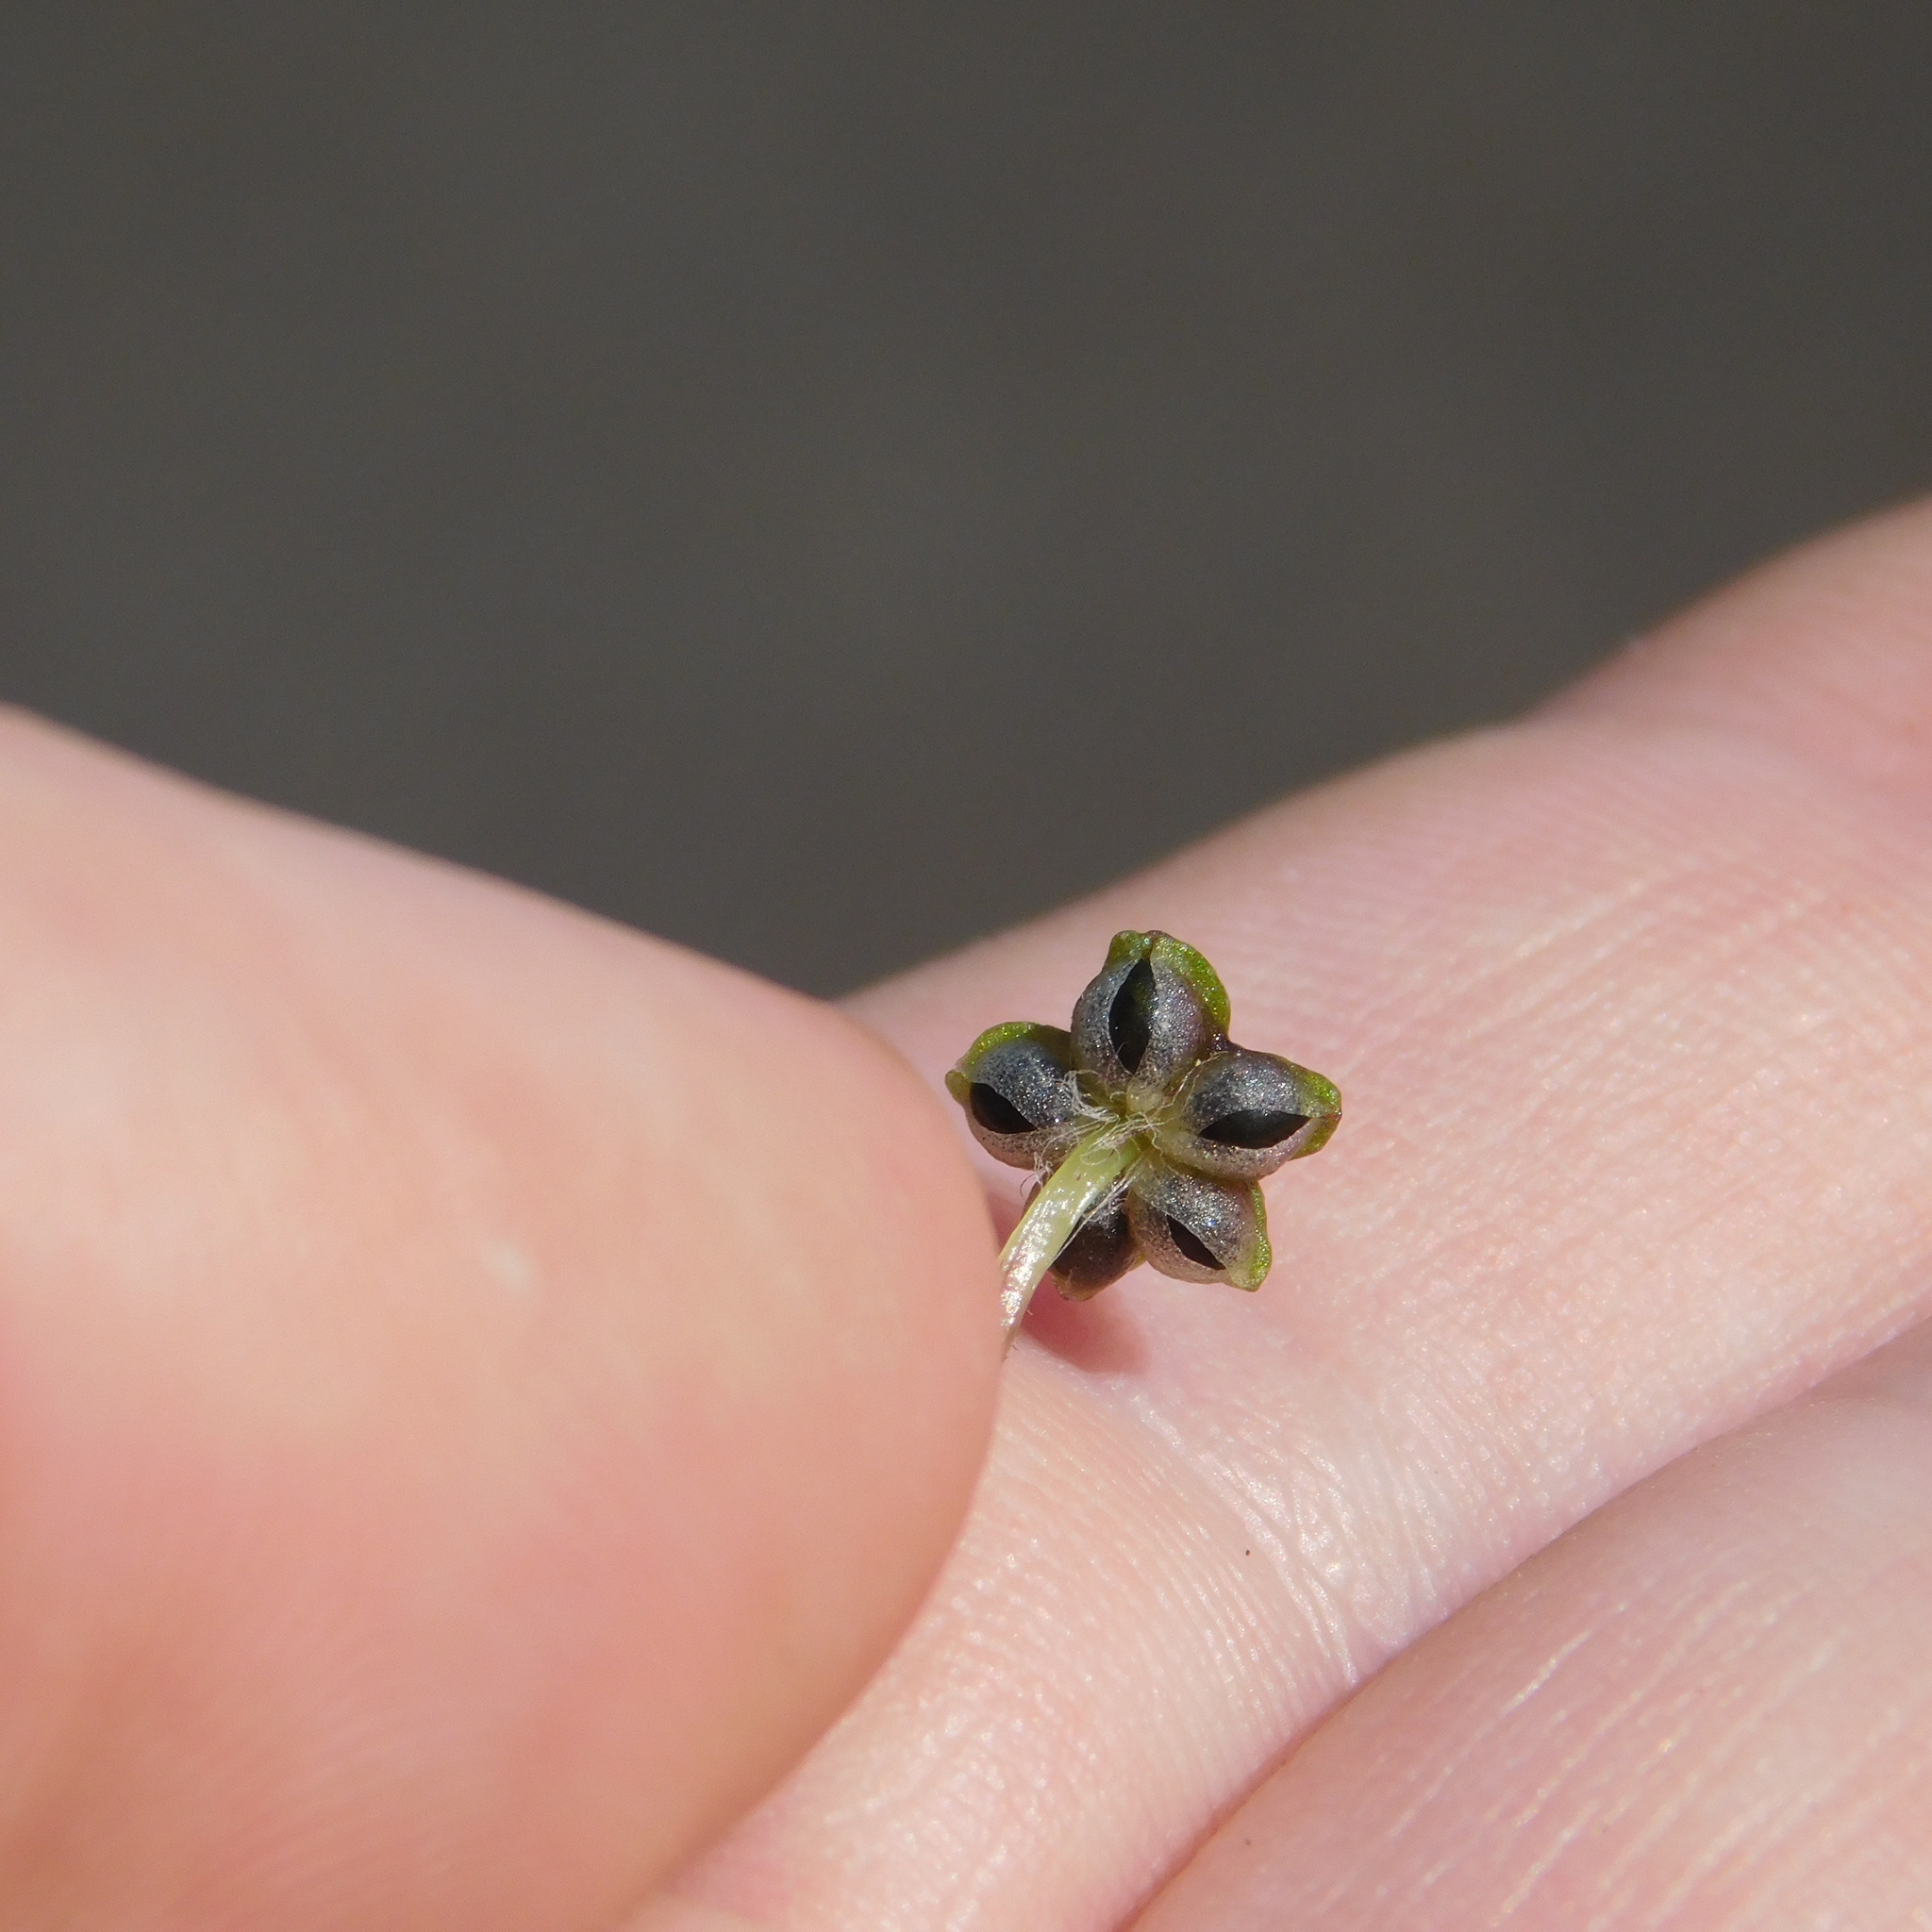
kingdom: Plantae
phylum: Marchantiophyta
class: Marchantiopsida
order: Marchantiales
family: Aytoniaceae
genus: Reboulia
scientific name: Reboulia hemisphaerica
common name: Purple-margined liverwort
